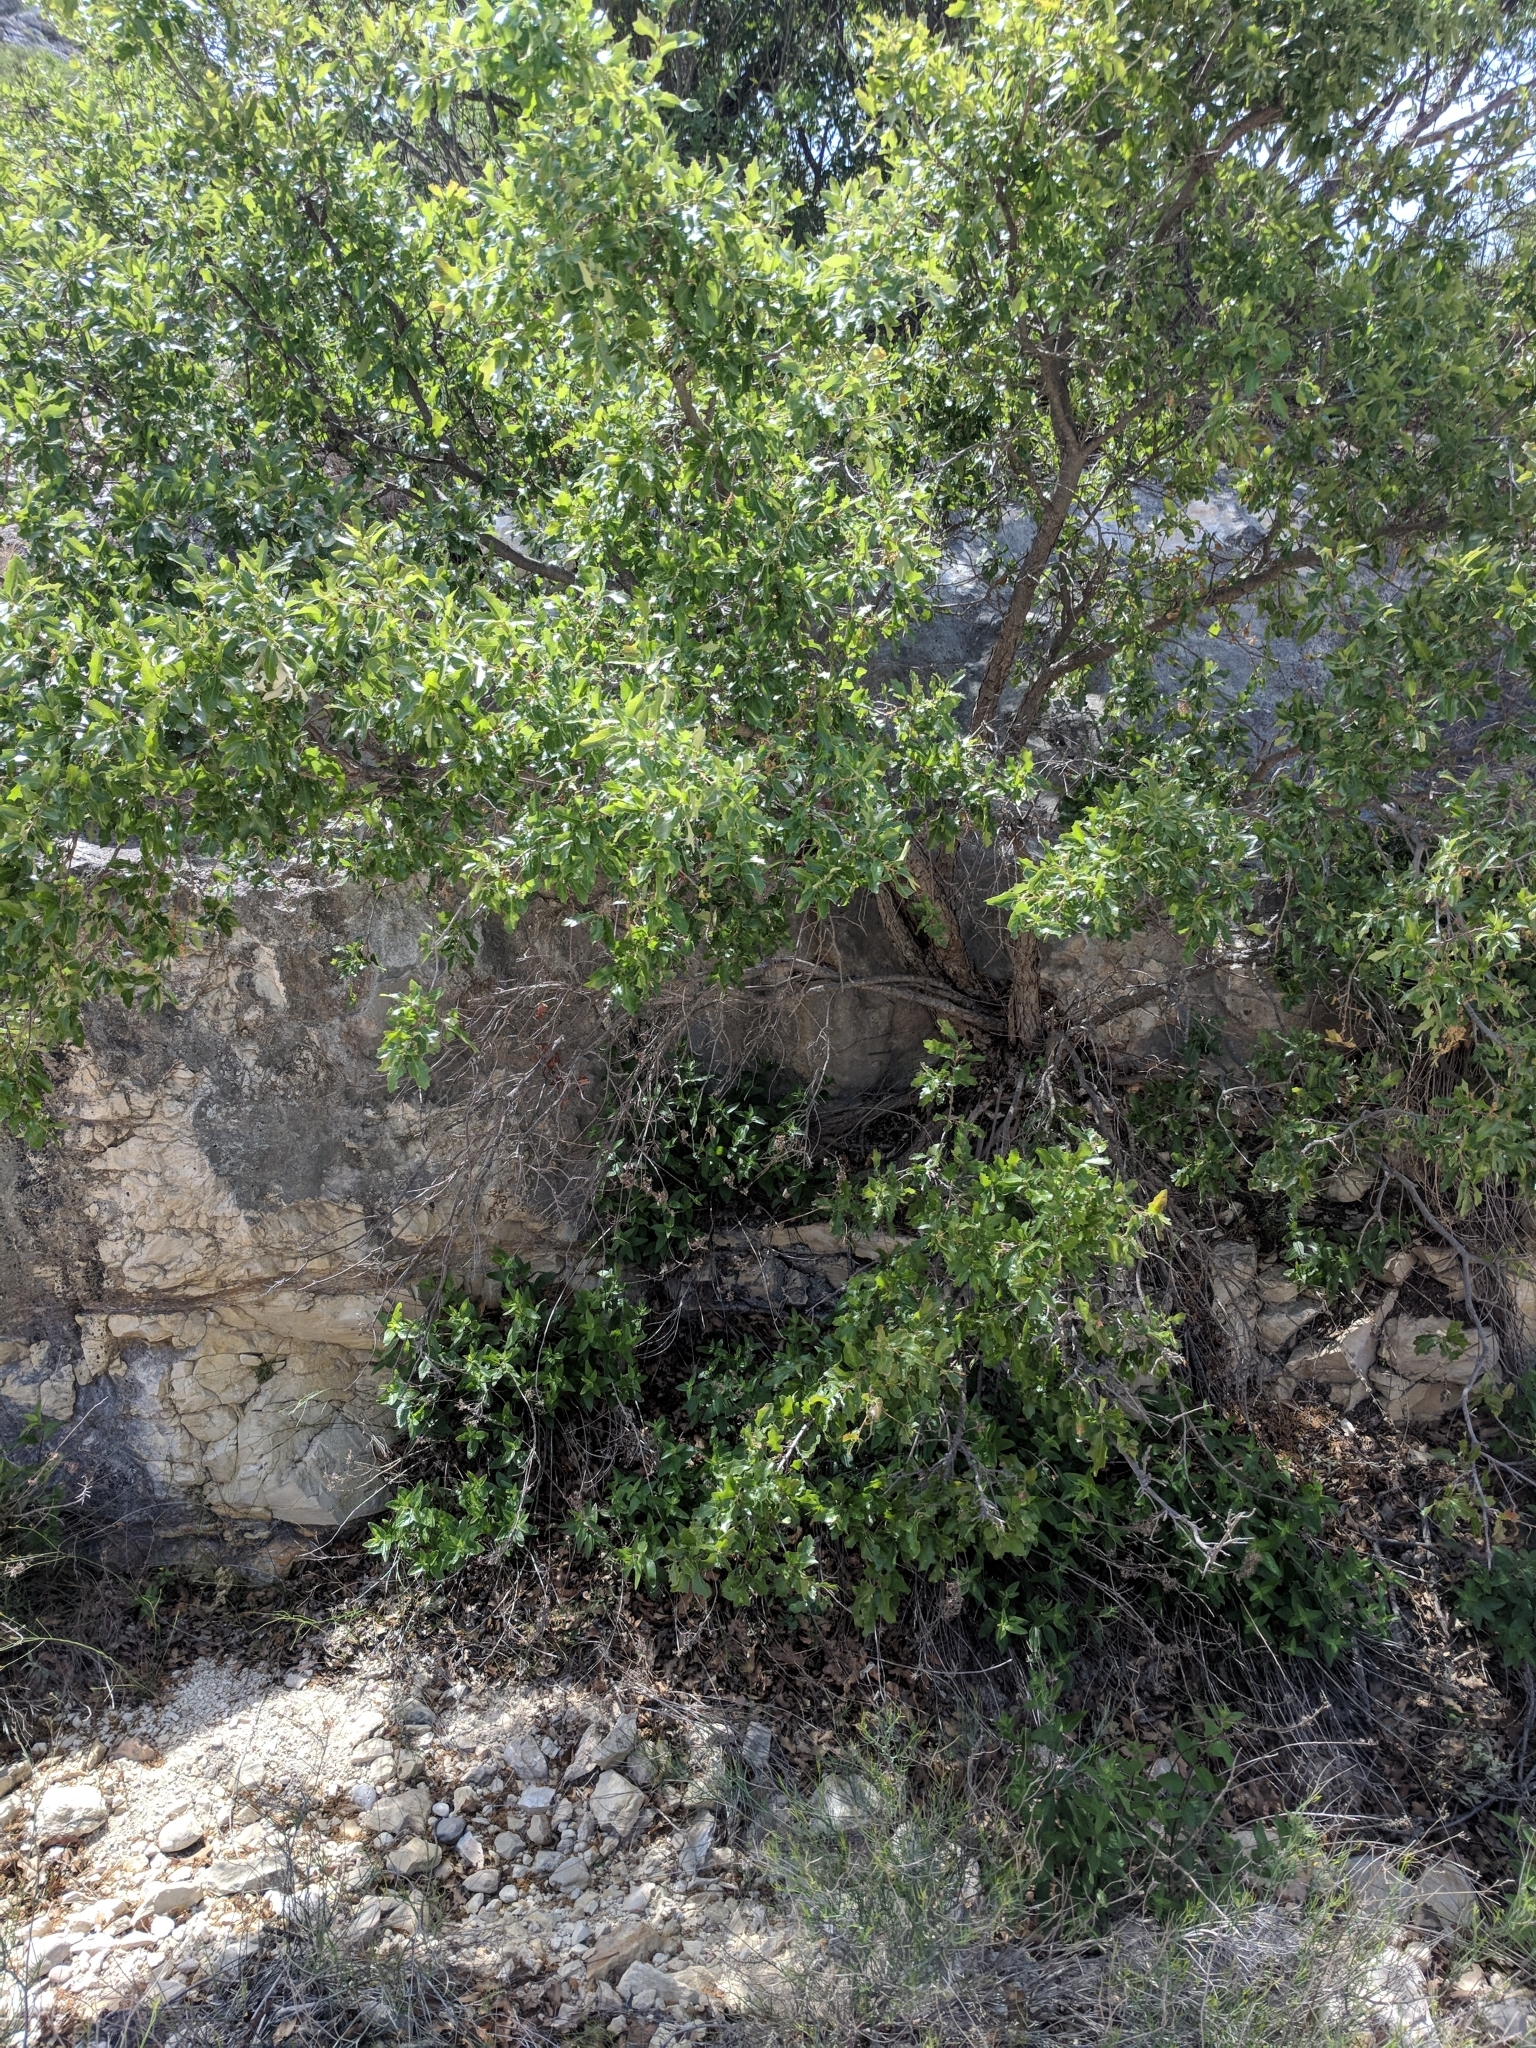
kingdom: Plantae
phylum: Tracheophyta
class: Magnoliopsida
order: Fagales
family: Fagaceae
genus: Quercus
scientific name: Quercus vaseyana
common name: Sandpaper oak
